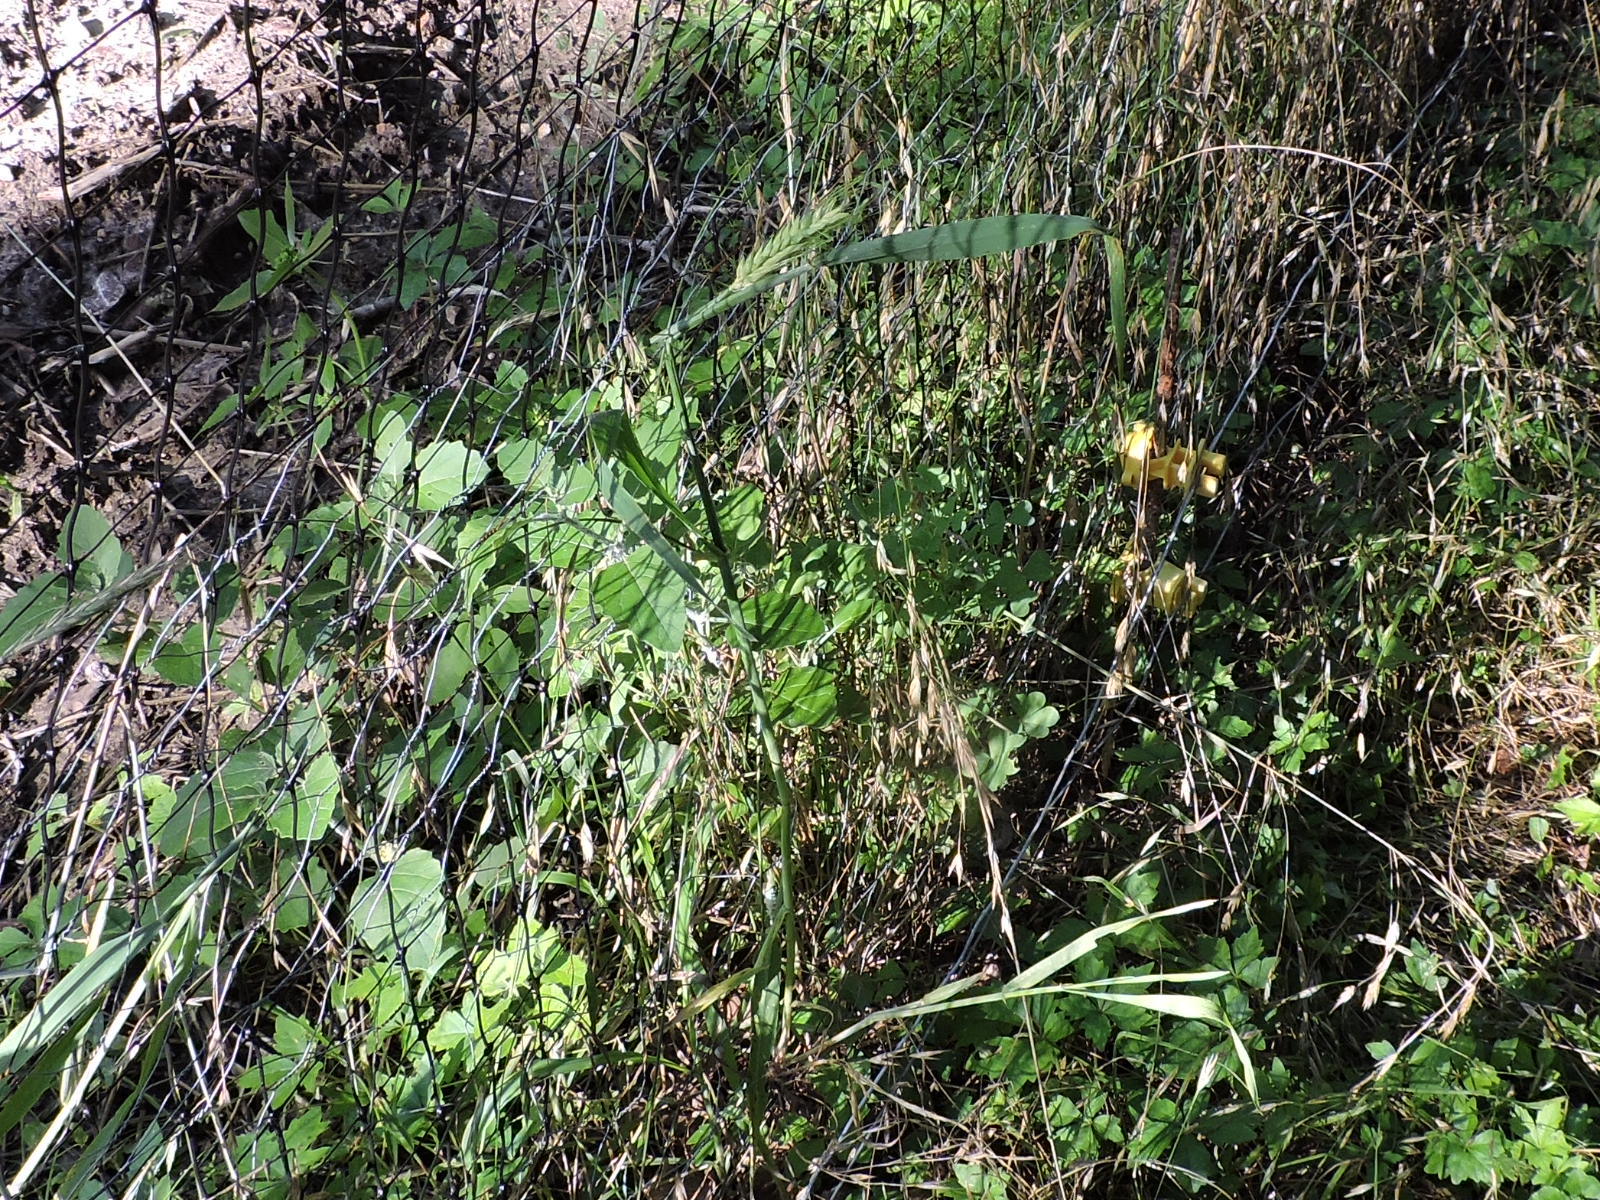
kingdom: Plantae
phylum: Tracheophyta
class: Liliopsida
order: Poales
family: Poaceae
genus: Triticum
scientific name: Triticum aestivum
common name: Common wheat
